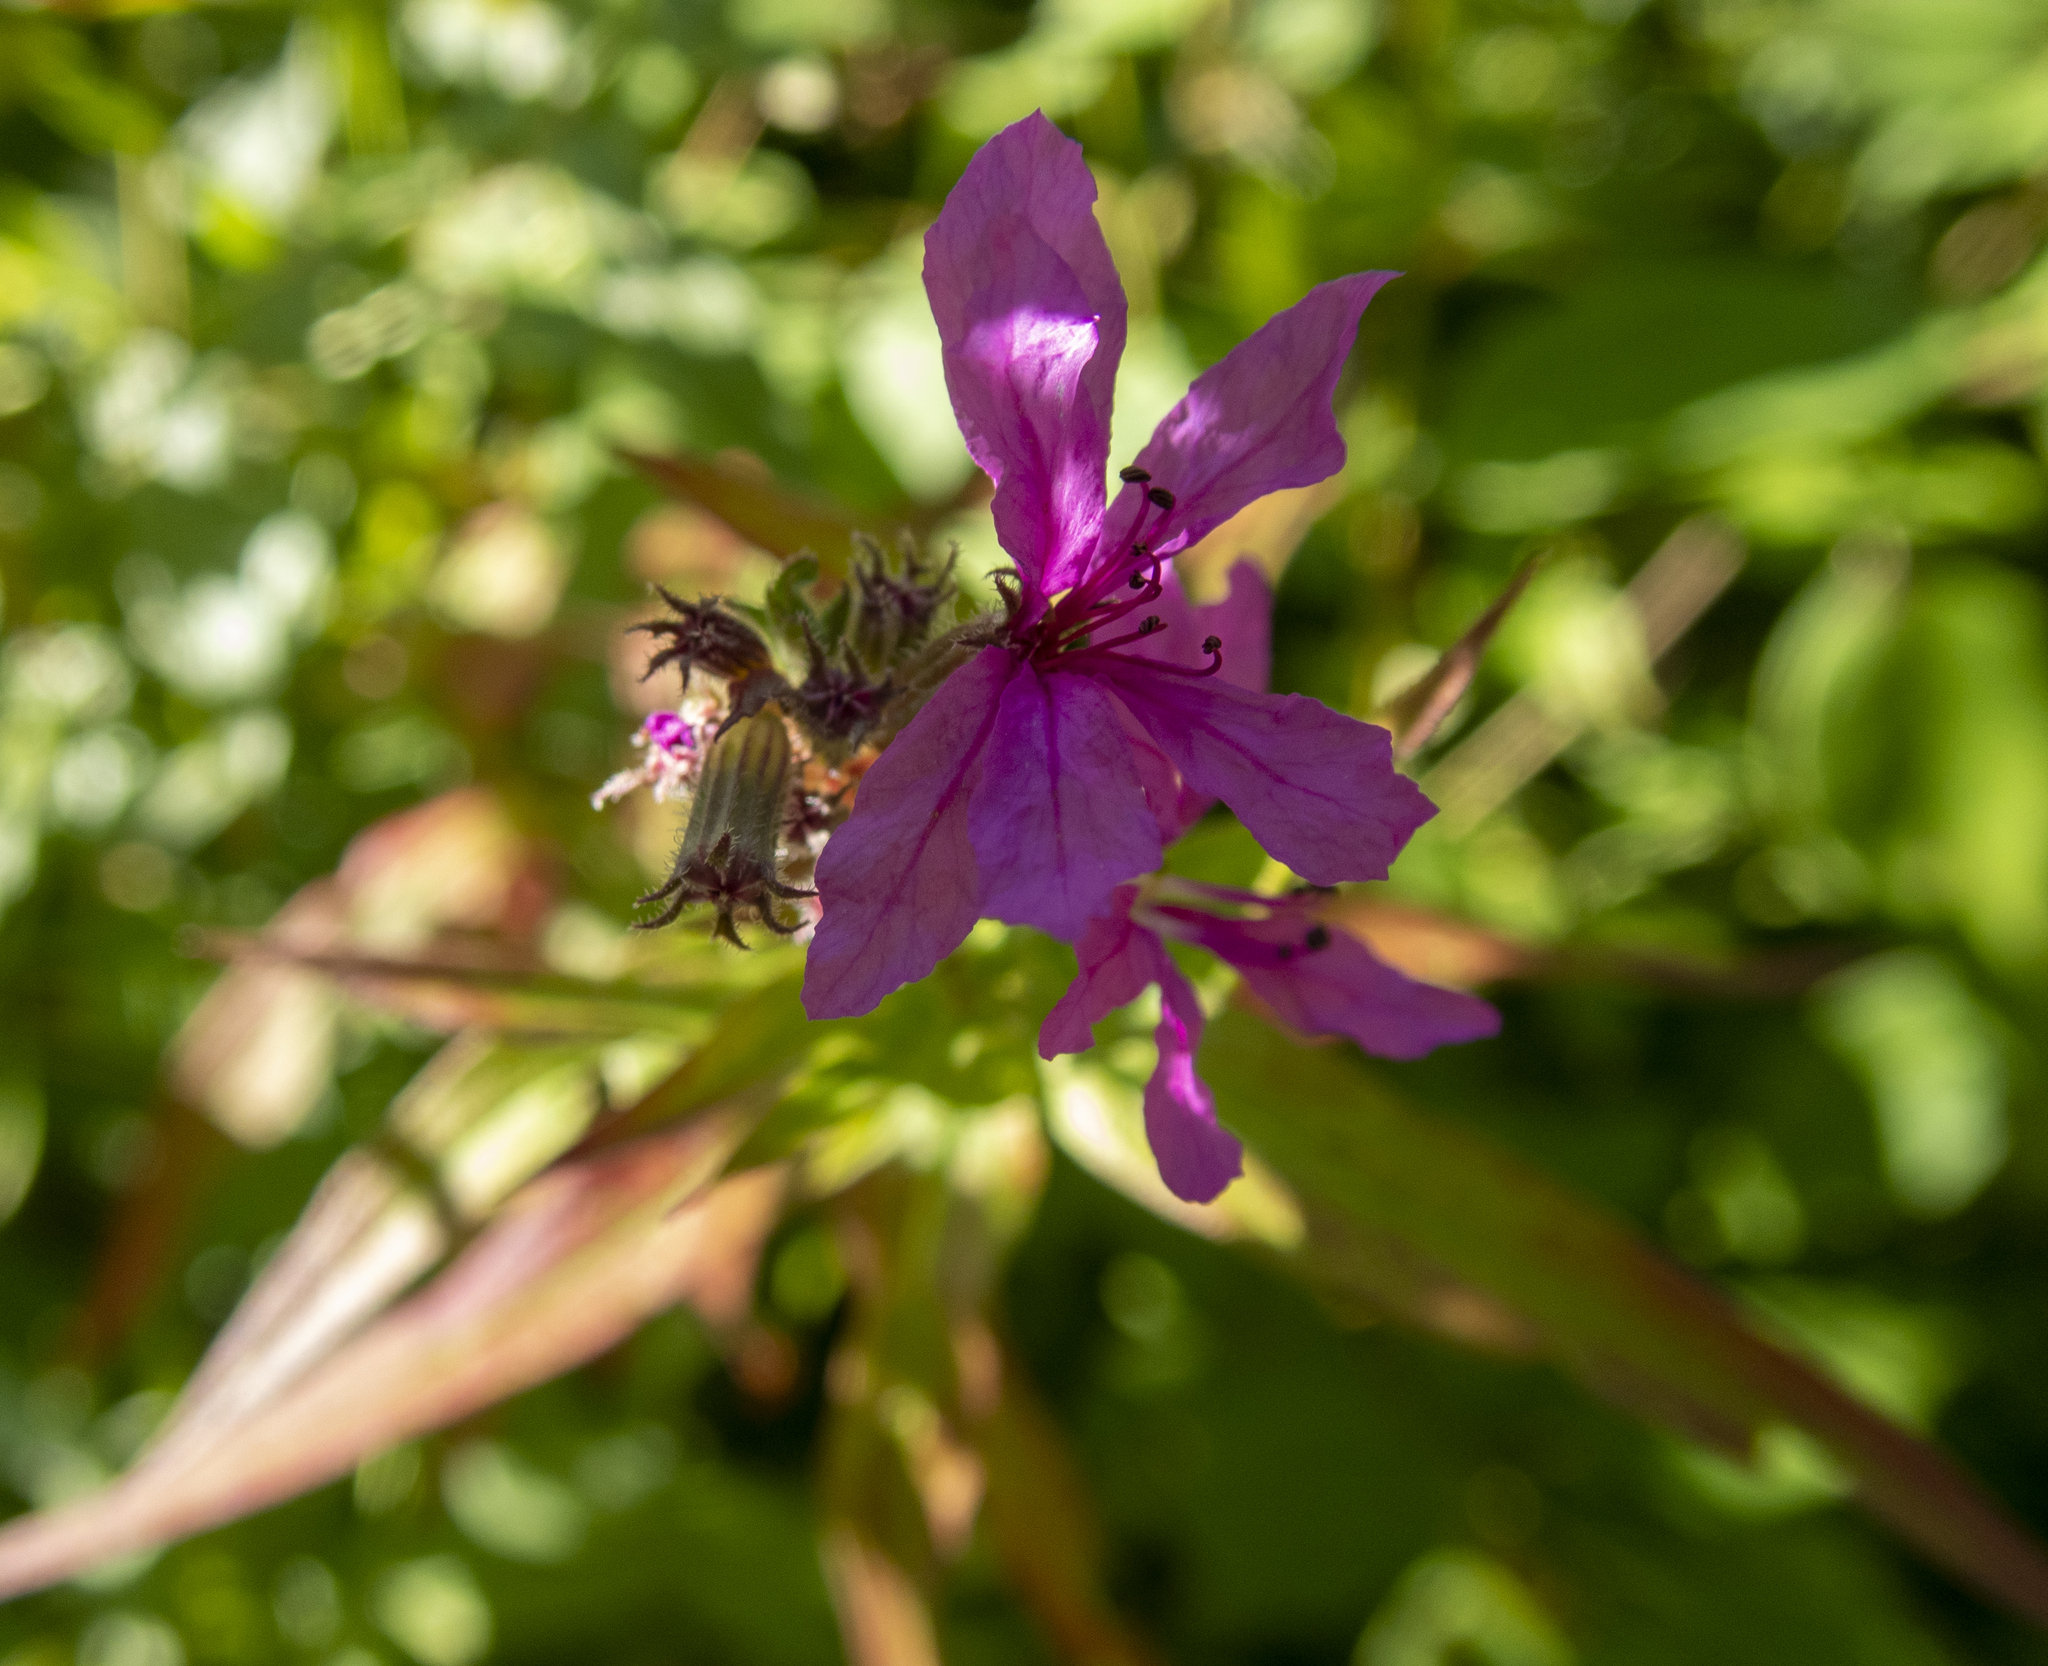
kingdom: Plantae
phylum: Tracheophyta
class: Magnoliopsida
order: Myrtales
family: Lythraceae
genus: Lythrum
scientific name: Lythrum salicaria
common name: Purple loosestrife
